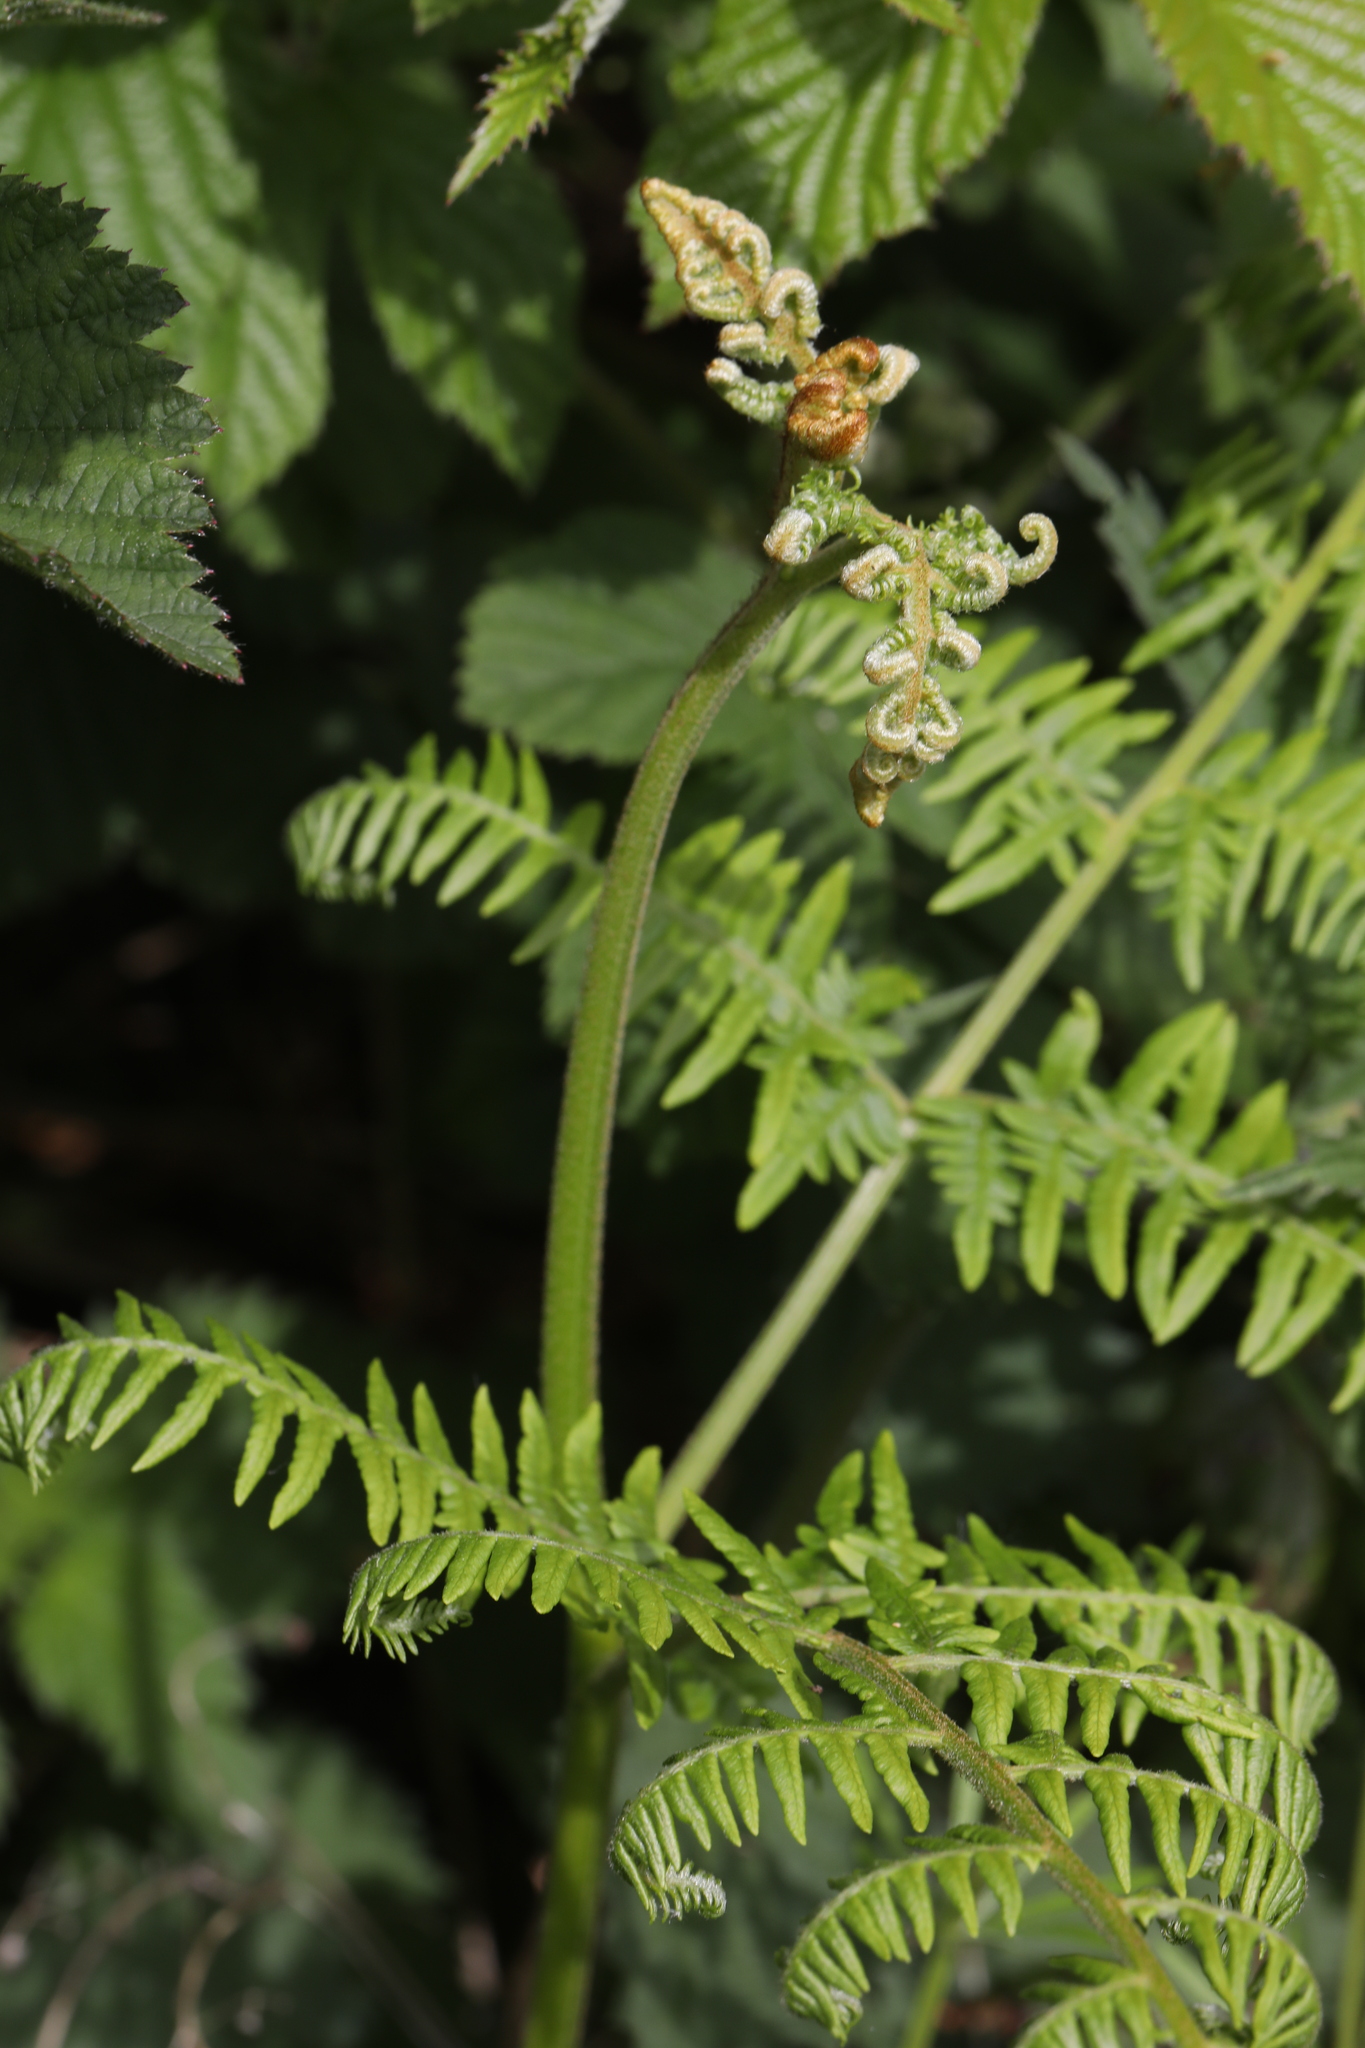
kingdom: Plantae
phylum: Tracheophyta
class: Polypodiopsida
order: Polypodiales
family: Dennstaedtiaceae
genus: Pteridium
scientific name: Pteridium aquilinum
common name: Bracken
